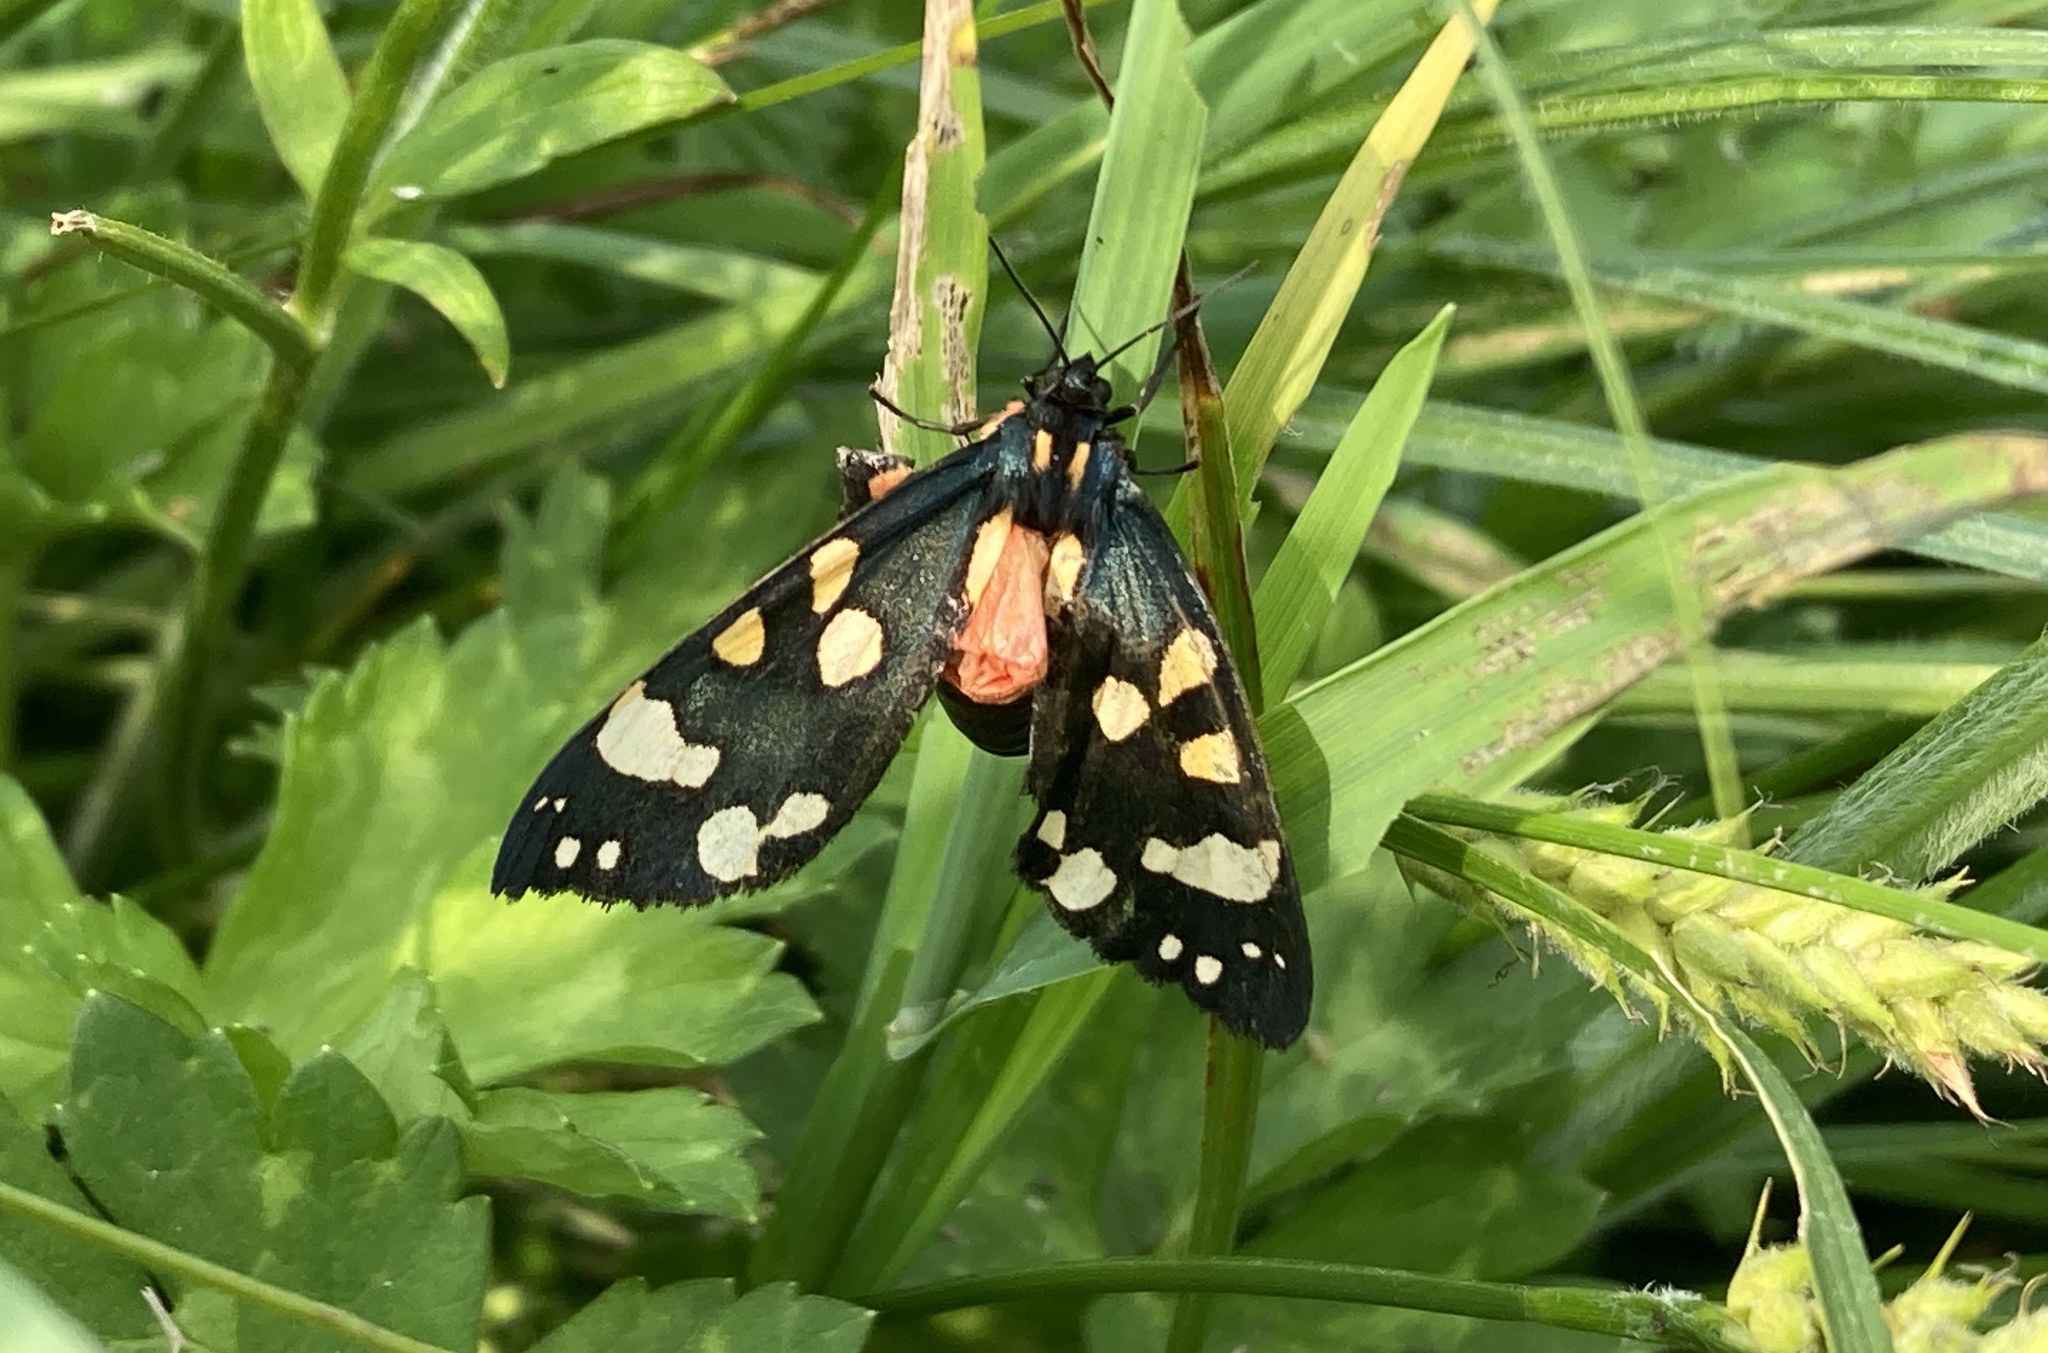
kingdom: Animalia
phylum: Arthropoda
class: Insecta
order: Lepidoptera
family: Erebidae
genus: Callimorpha
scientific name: Callimorpha dominula
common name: Scarlet tiger
